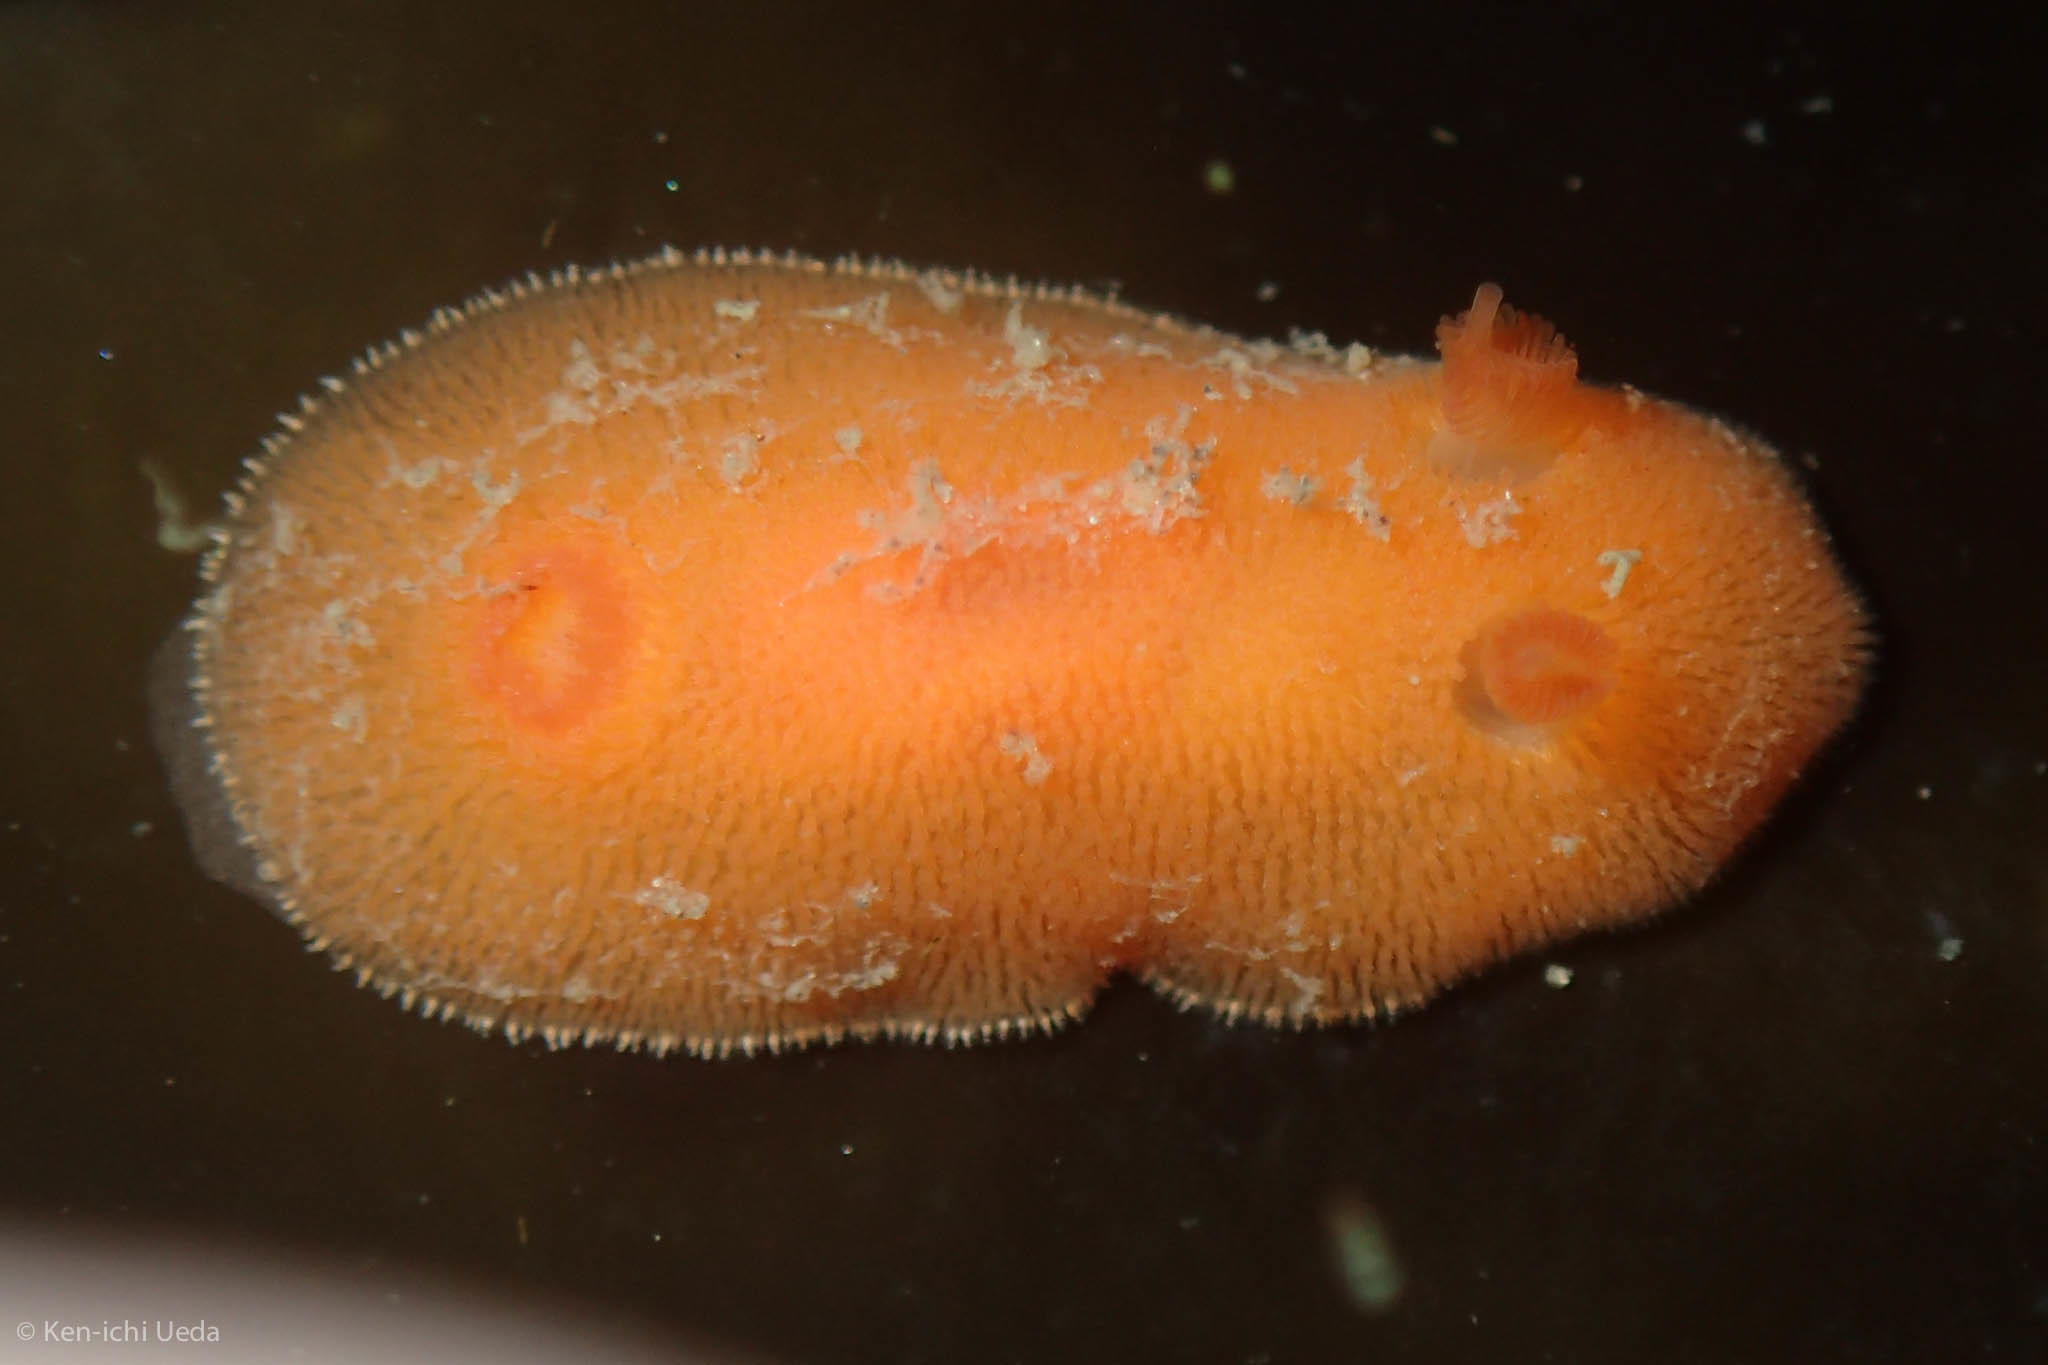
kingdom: Animalia
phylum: Mollusca
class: Gastropoda
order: Nudibranchia
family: Discodorididae
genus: Rostanga
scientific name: Rostanga pulchra
